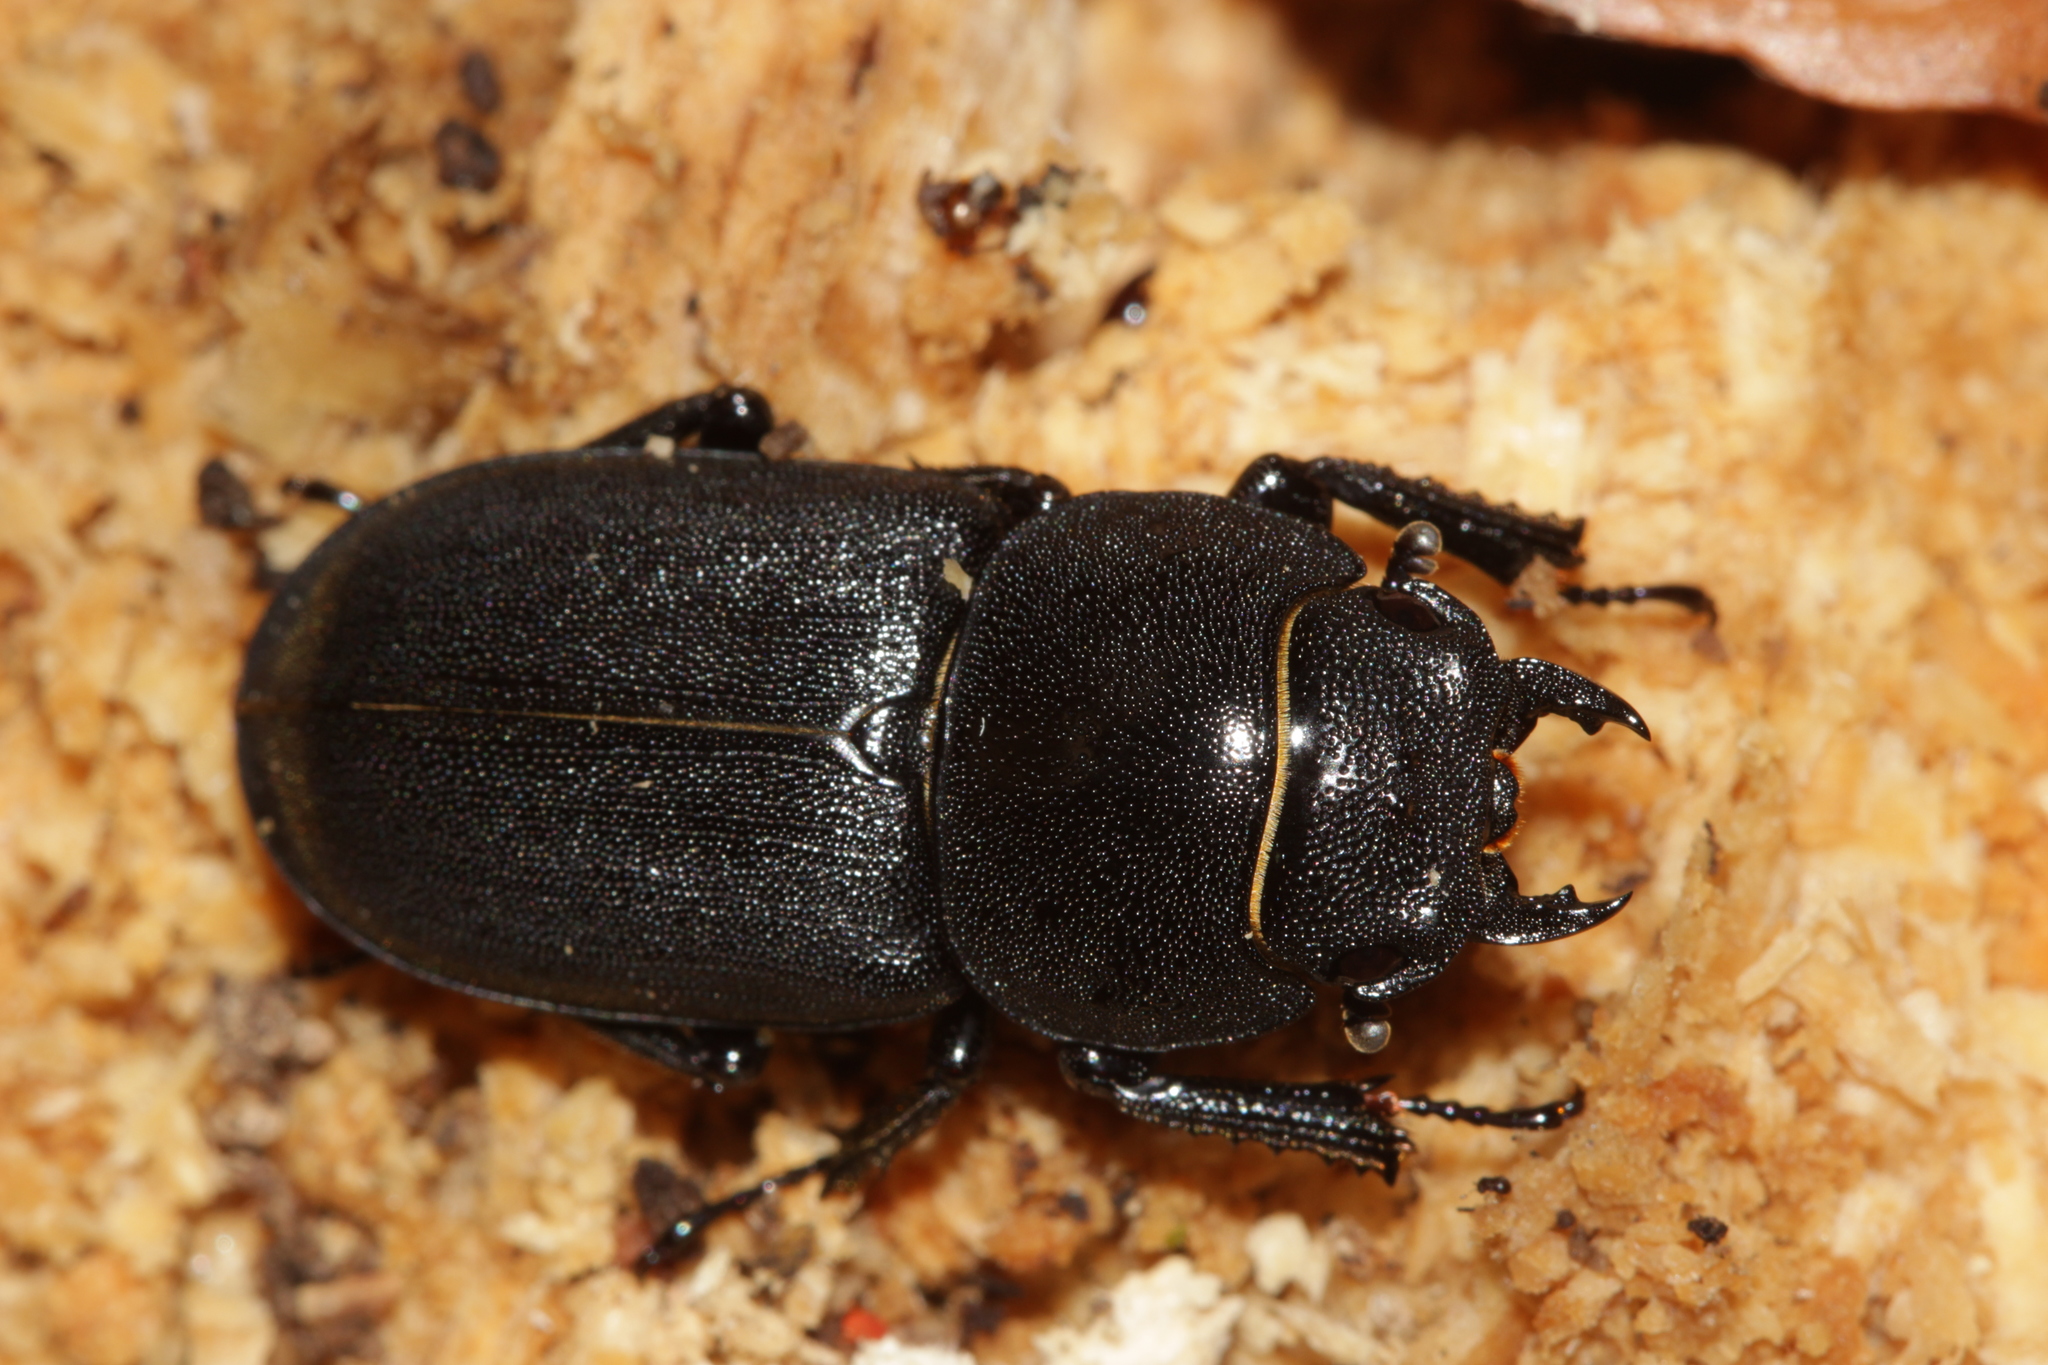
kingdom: Animalia
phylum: Arthropoda
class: Insecta
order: Coleoptera
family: Lucanidae
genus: Dorcus
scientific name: Dorcus parallelipipedus
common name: Lesser stag beetle
